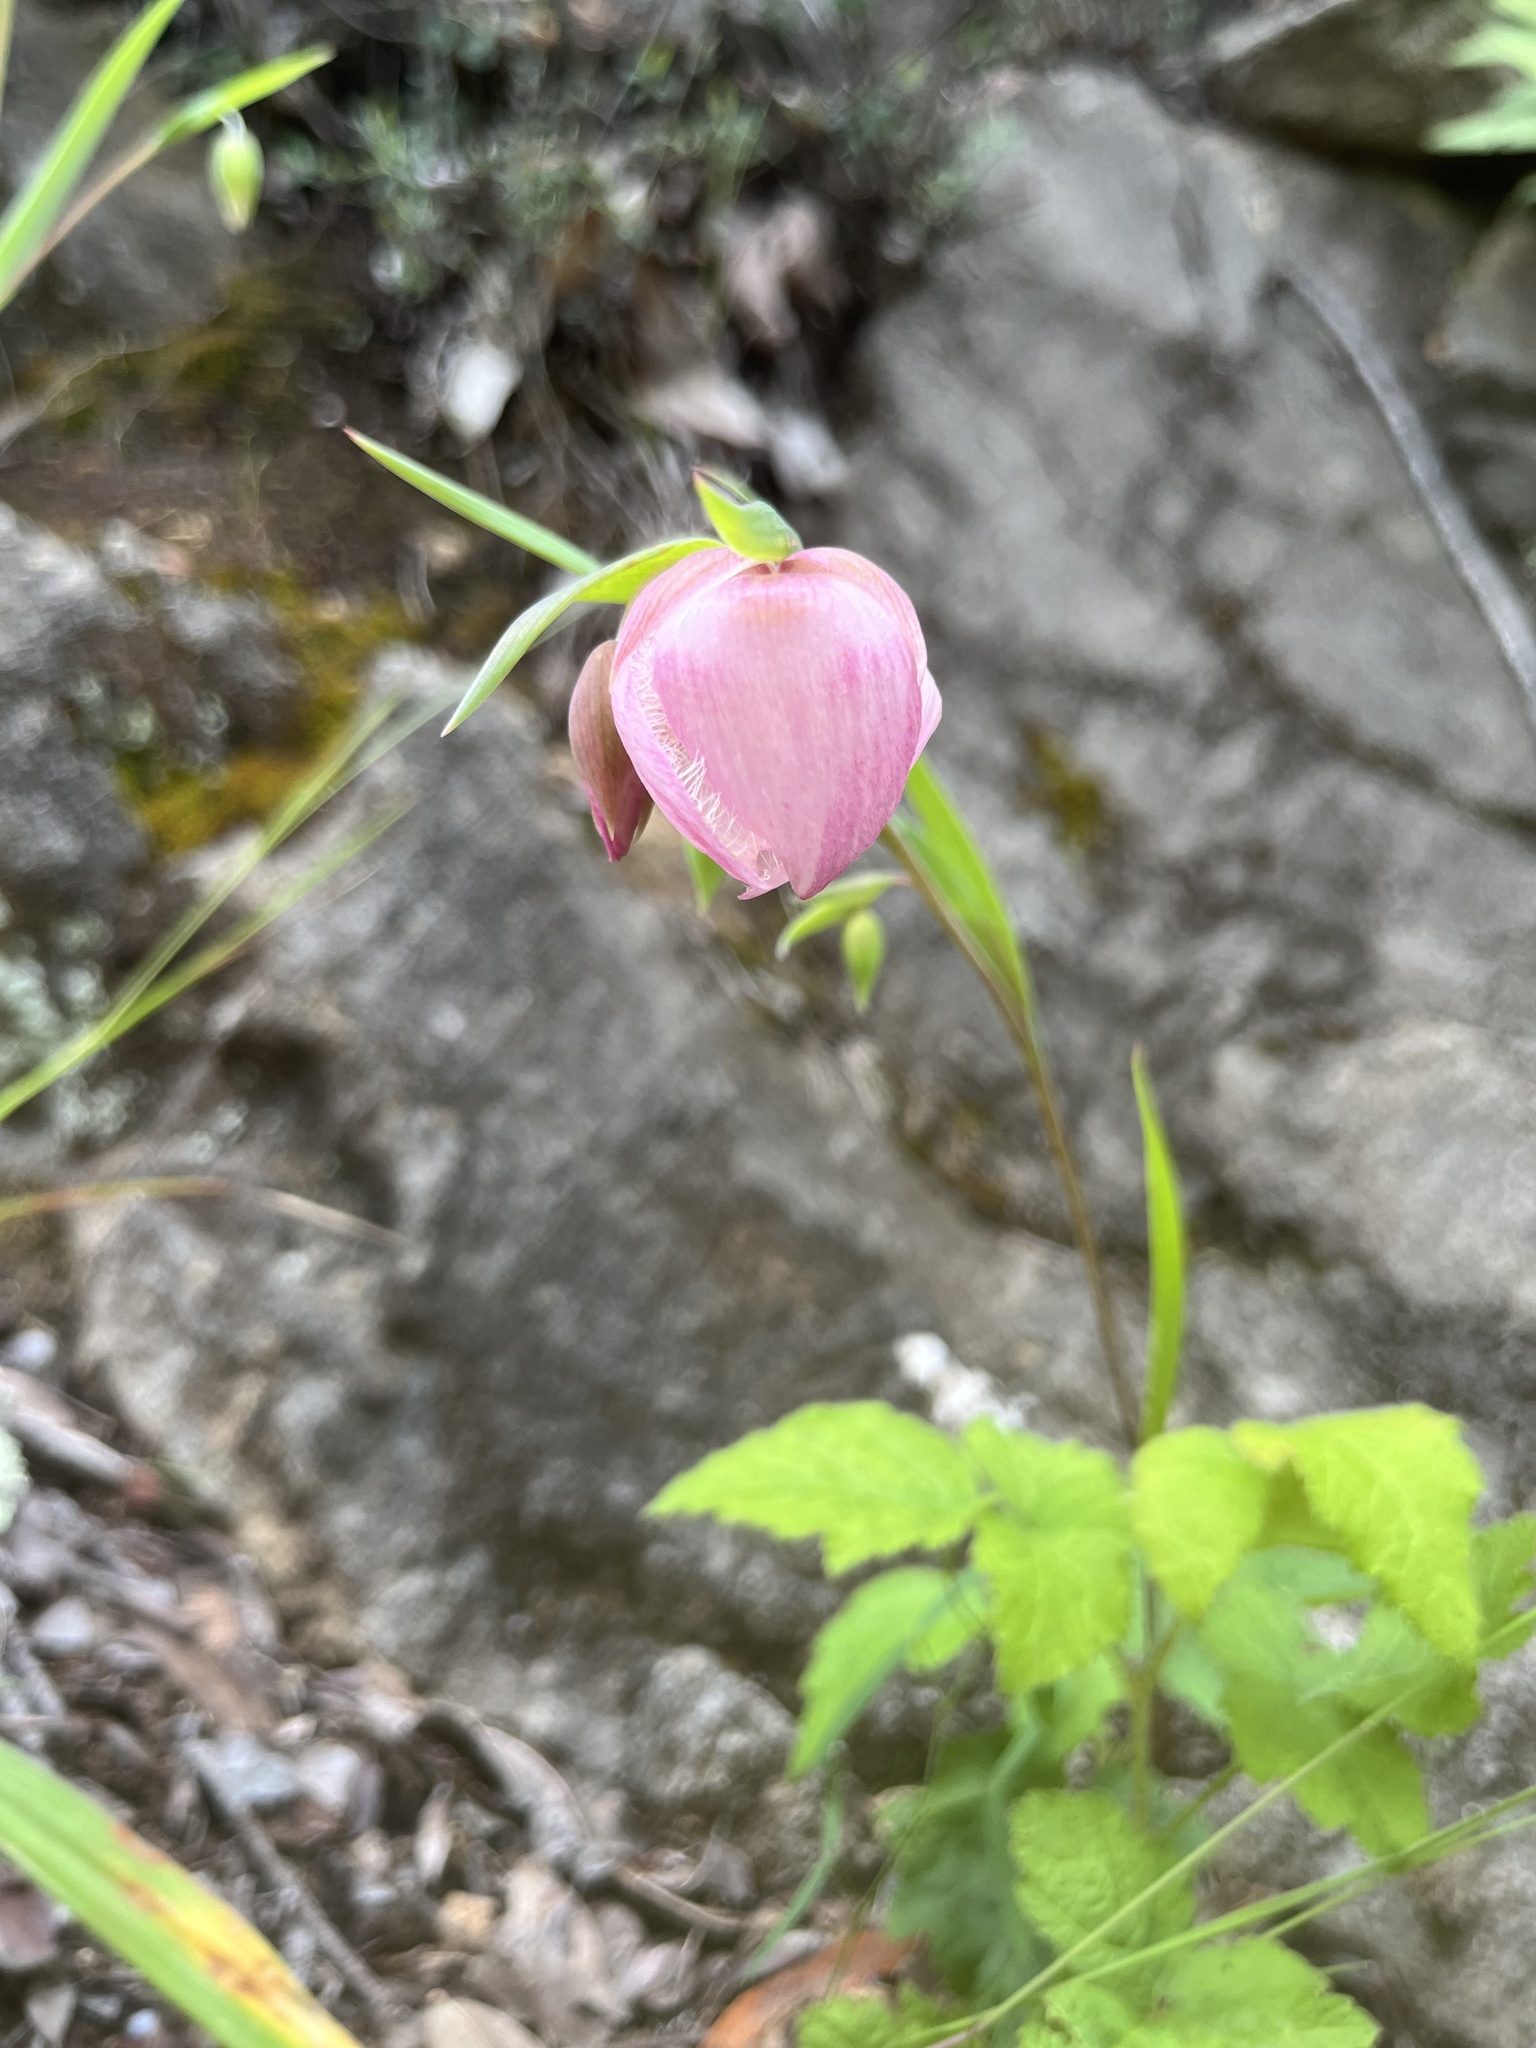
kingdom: Plantae
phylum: Tracheophyta
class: Liliopsida
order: Liliales
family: Liliaceae
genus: Calochortus
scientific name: Calochortus albus
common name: Fairy-lantern
